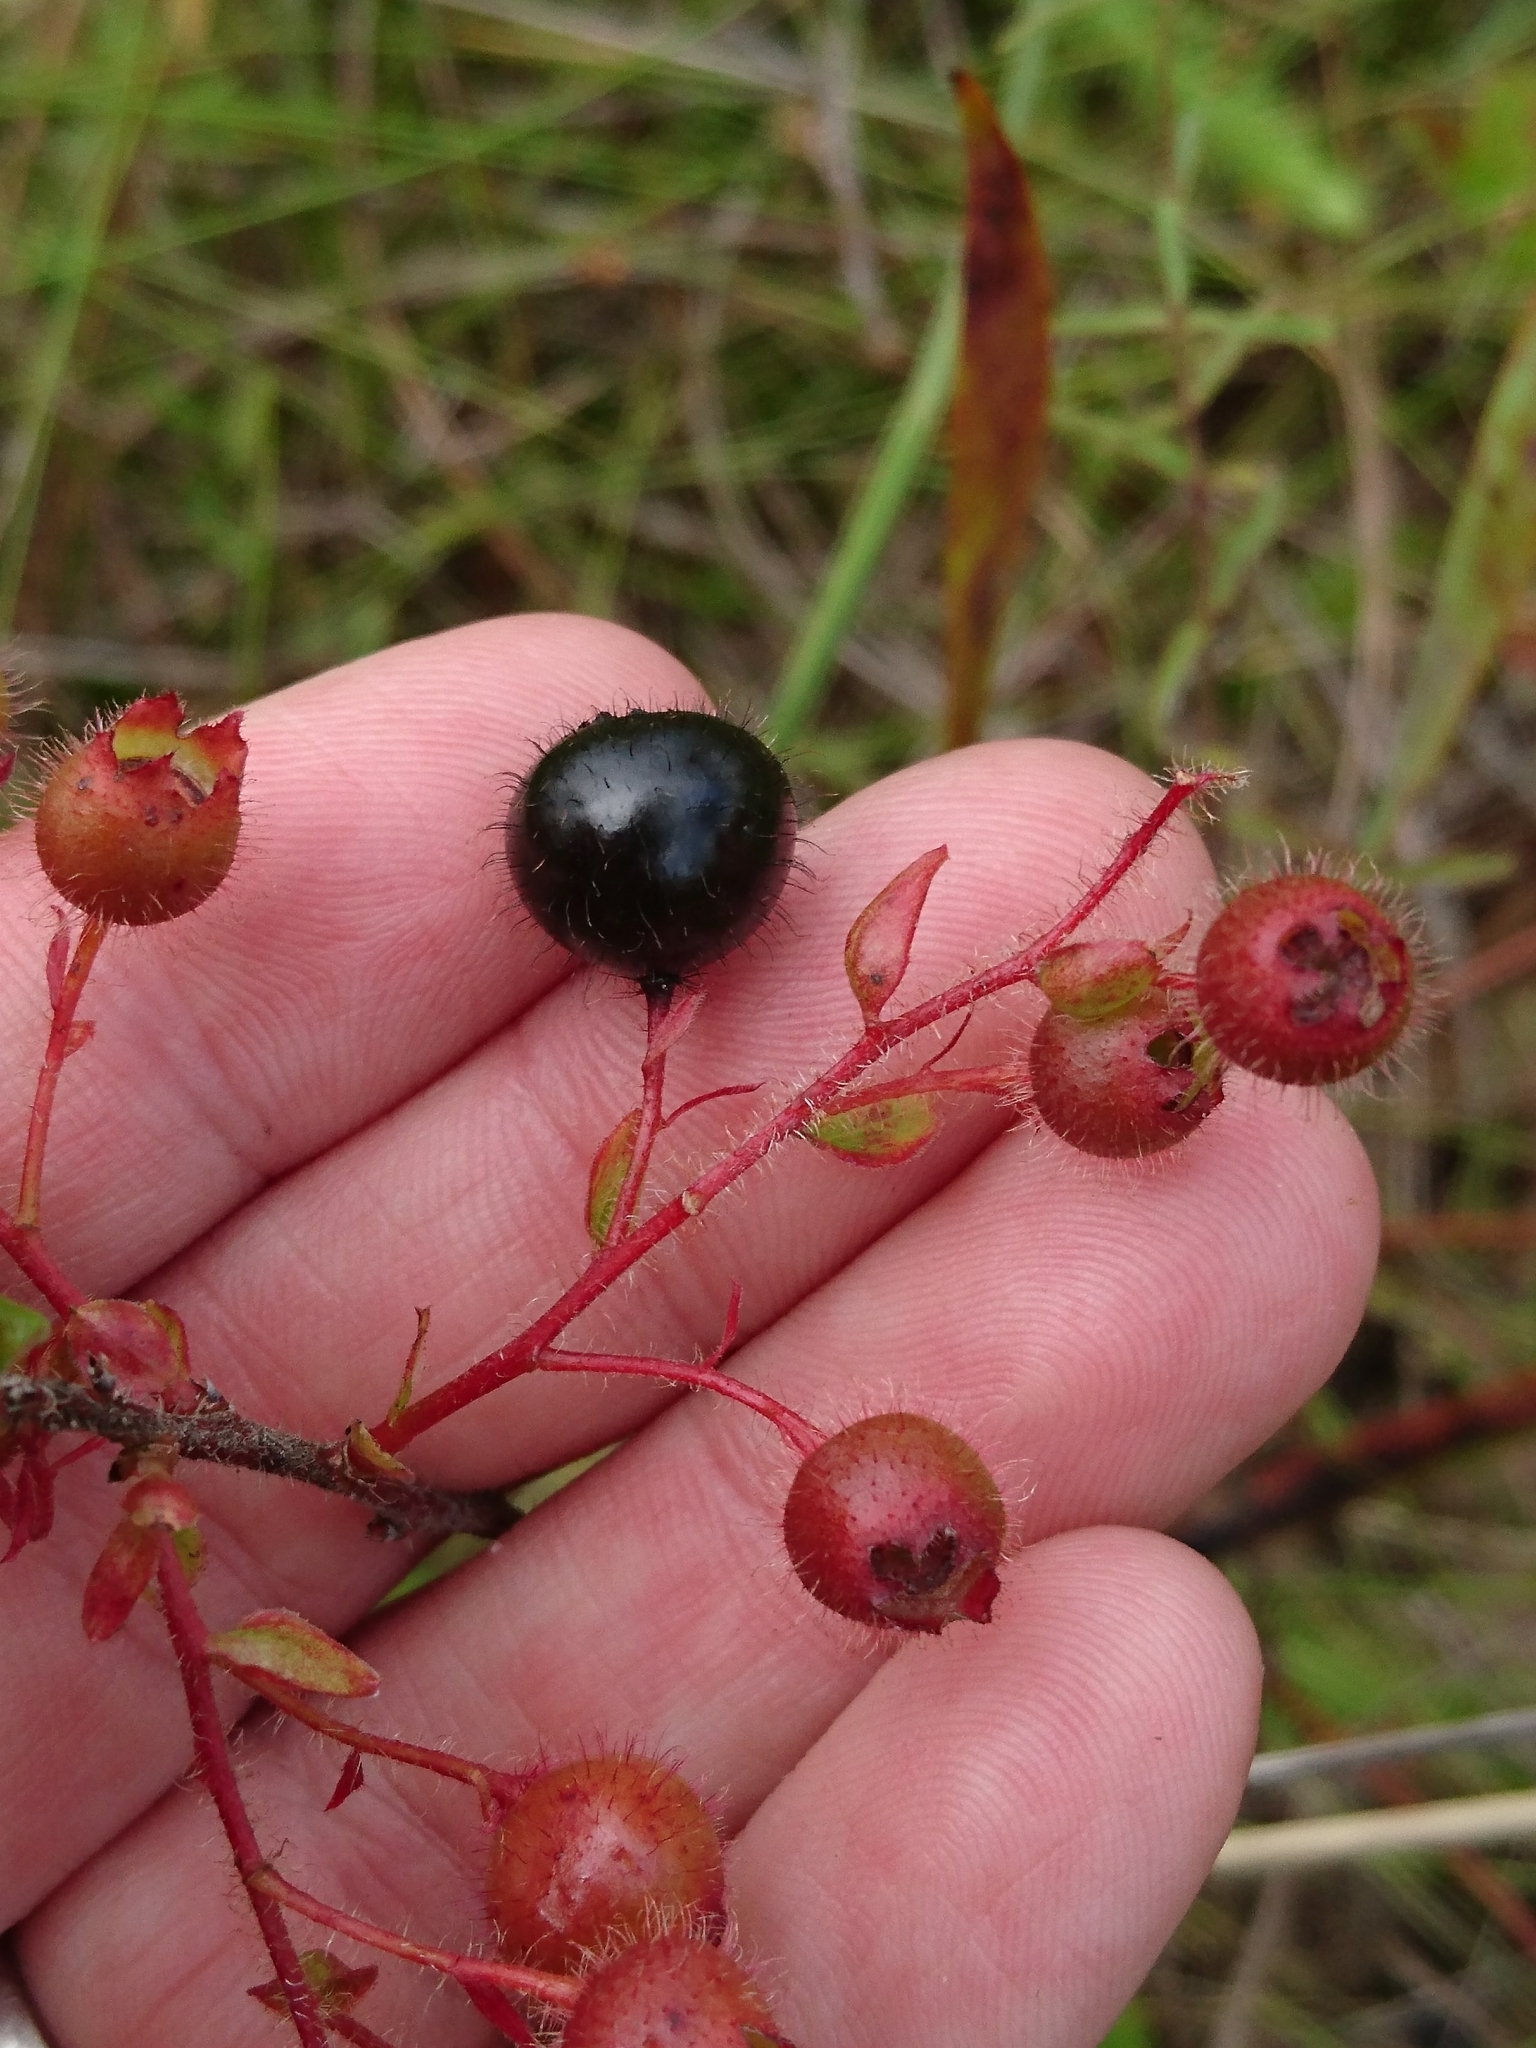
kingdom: Plantae
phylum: Tracheophyta
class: Magnoliopsida
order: Ericales
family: Ericaceae
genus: Gaylussacia
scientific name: Gaylussacia mosieri
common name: Hirsute huckleberry
